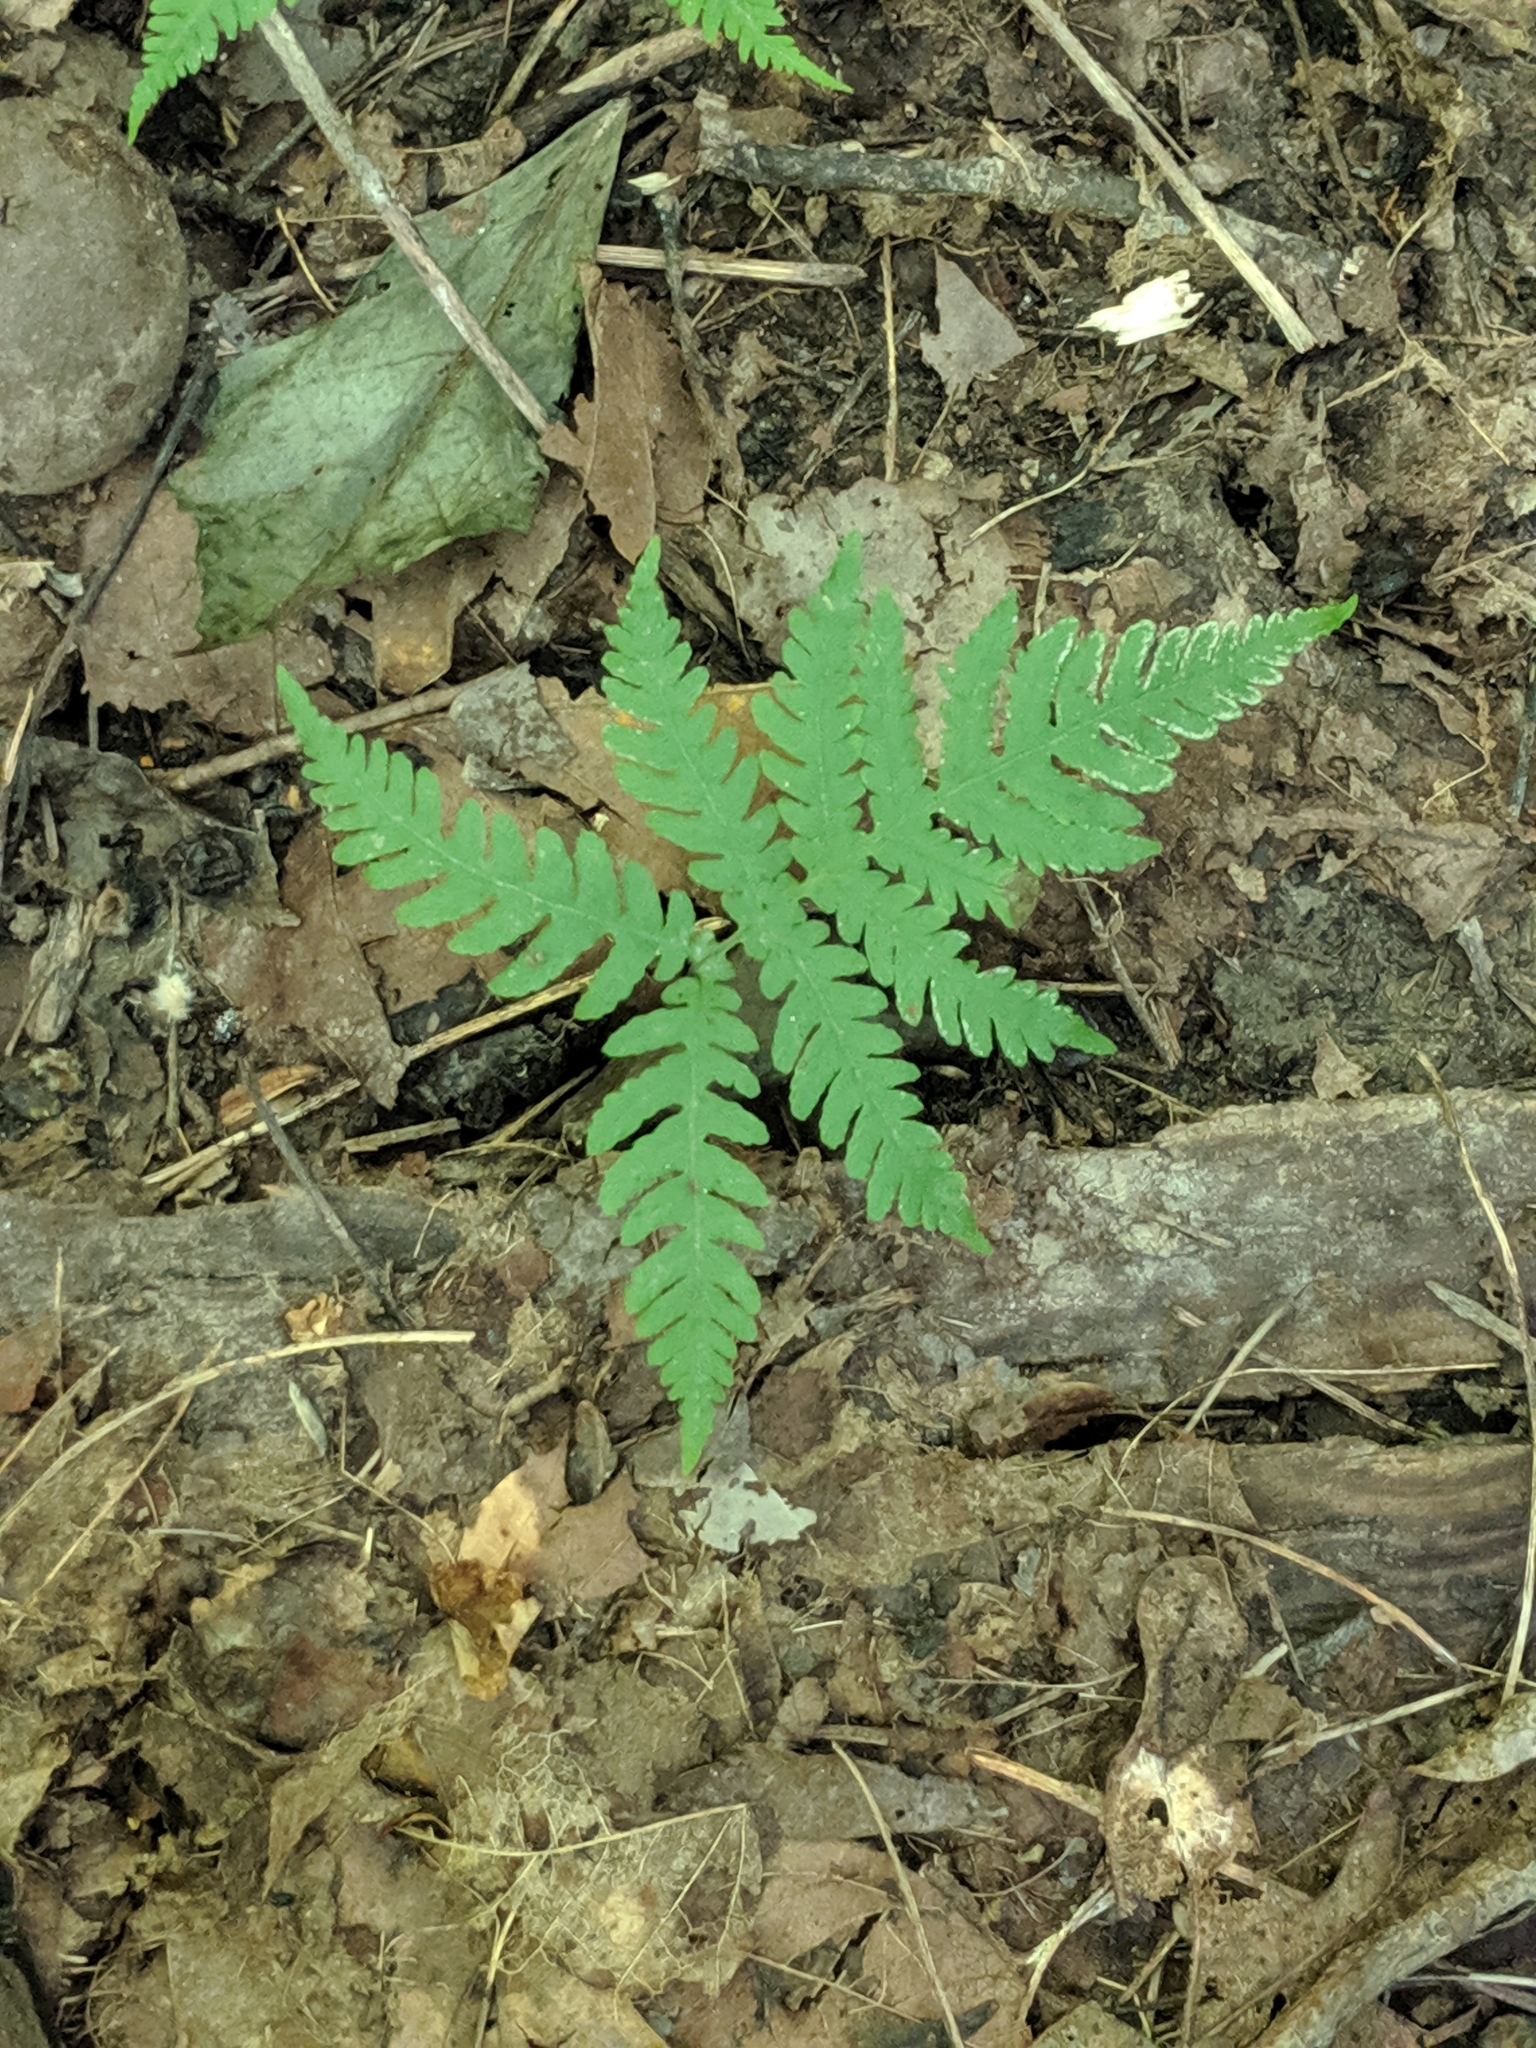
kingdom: Plantae
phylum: Tracheophyta
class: Polypodiopsida
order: Polypodiales
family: Thelypteridaceae
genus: Phegopteris
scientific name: Phegopteris hexagonoptera
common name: Broad beech fern
